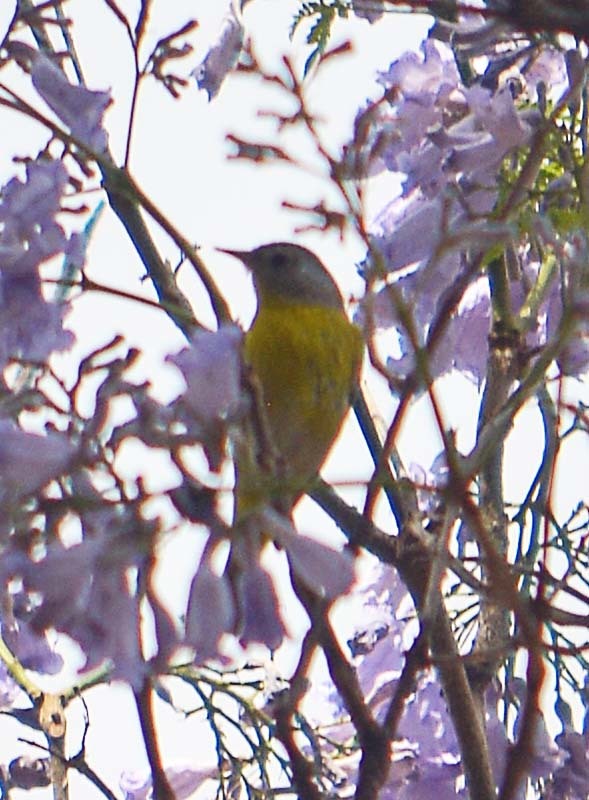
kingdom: Animalia
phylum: Chordata
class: Aves
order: Passeriformes
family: Parulidae
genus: Leiothlypis
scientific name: Leiothlypis ruficapilla
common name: Nashville warbler
